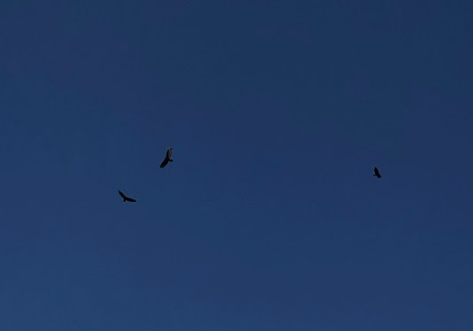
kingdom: Animalia
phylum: Chordata
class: Aves
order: Accipitriformes
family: Cathartidae
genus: Cathartes
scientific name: Cathartes aura
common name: Turkey vulture
